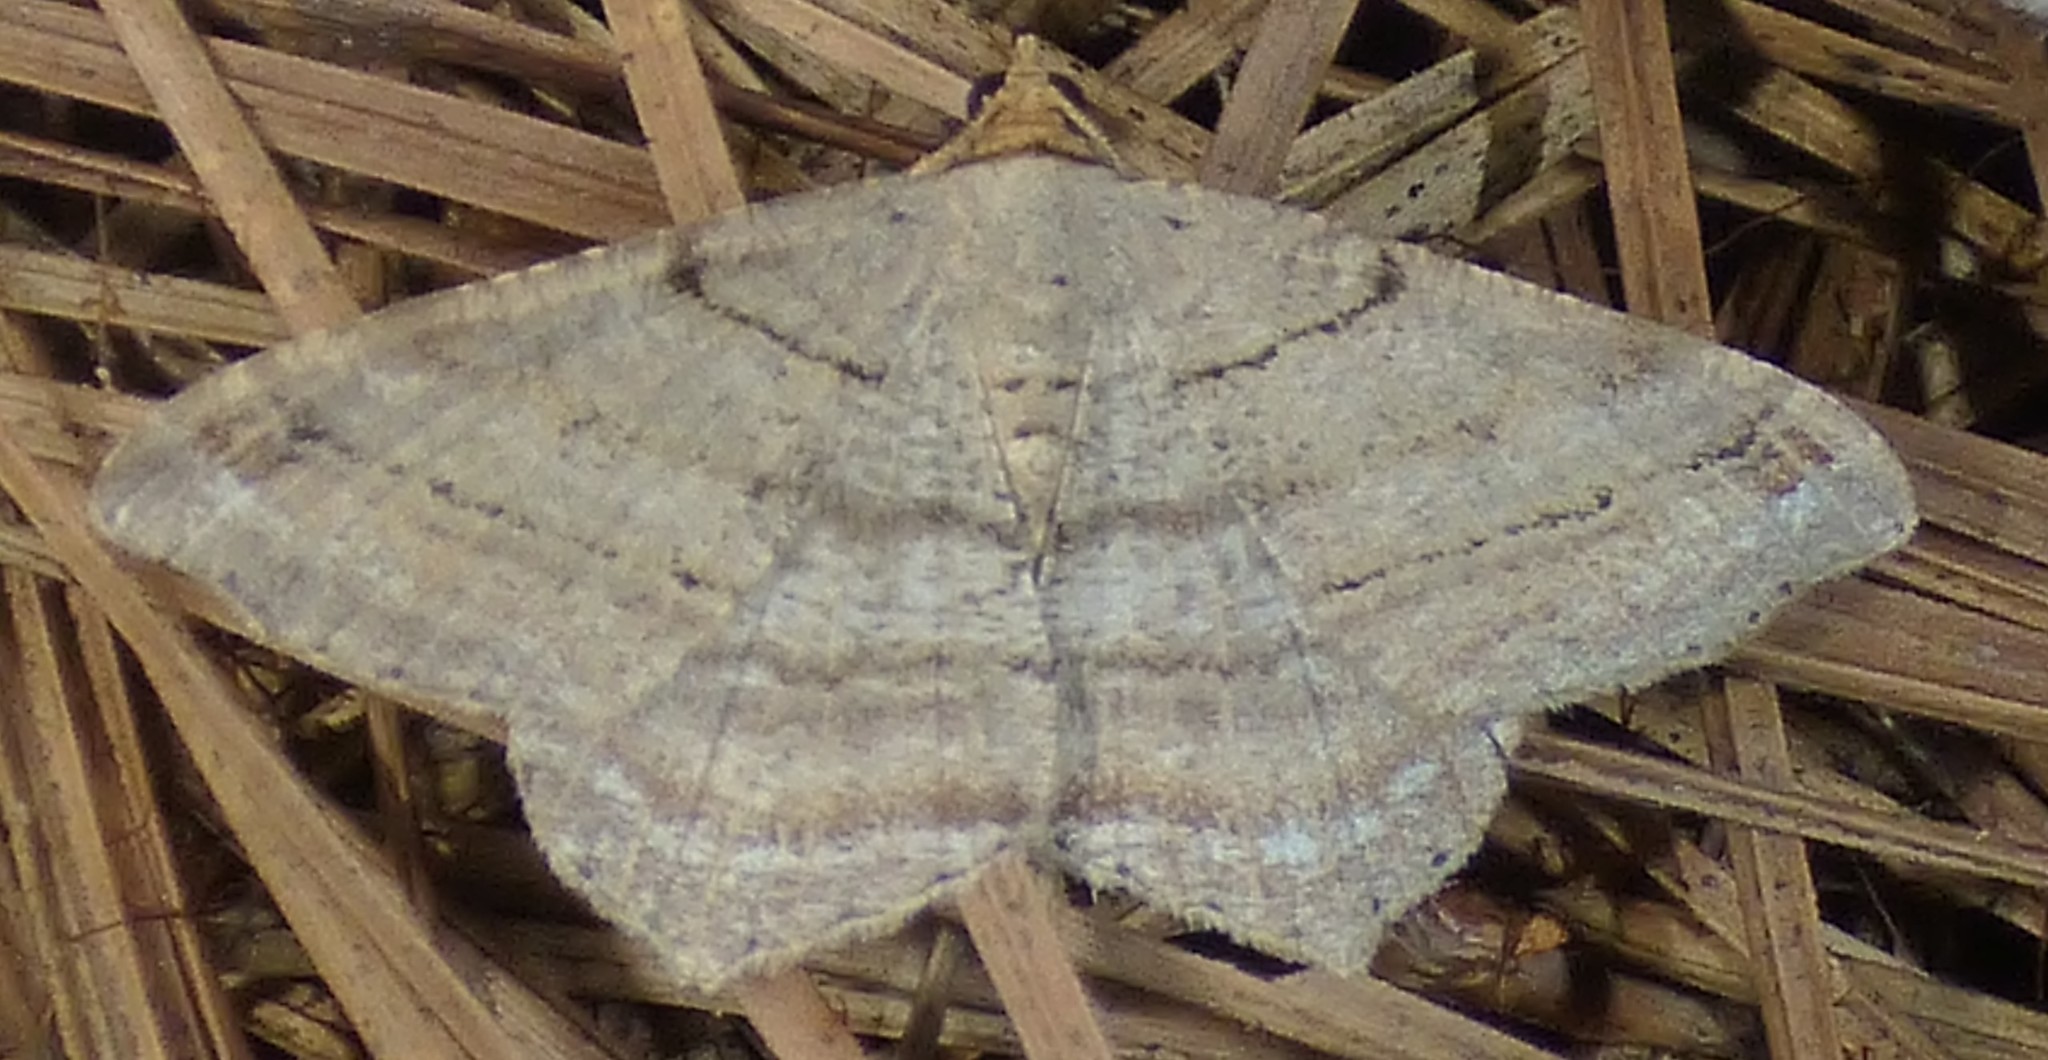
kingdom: Animalia
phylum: Arthropoda
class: Insecta
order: Lepidoptera
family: Geometridae
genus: Macaria
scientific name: Macaria multilineata
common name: Many-lined angle
